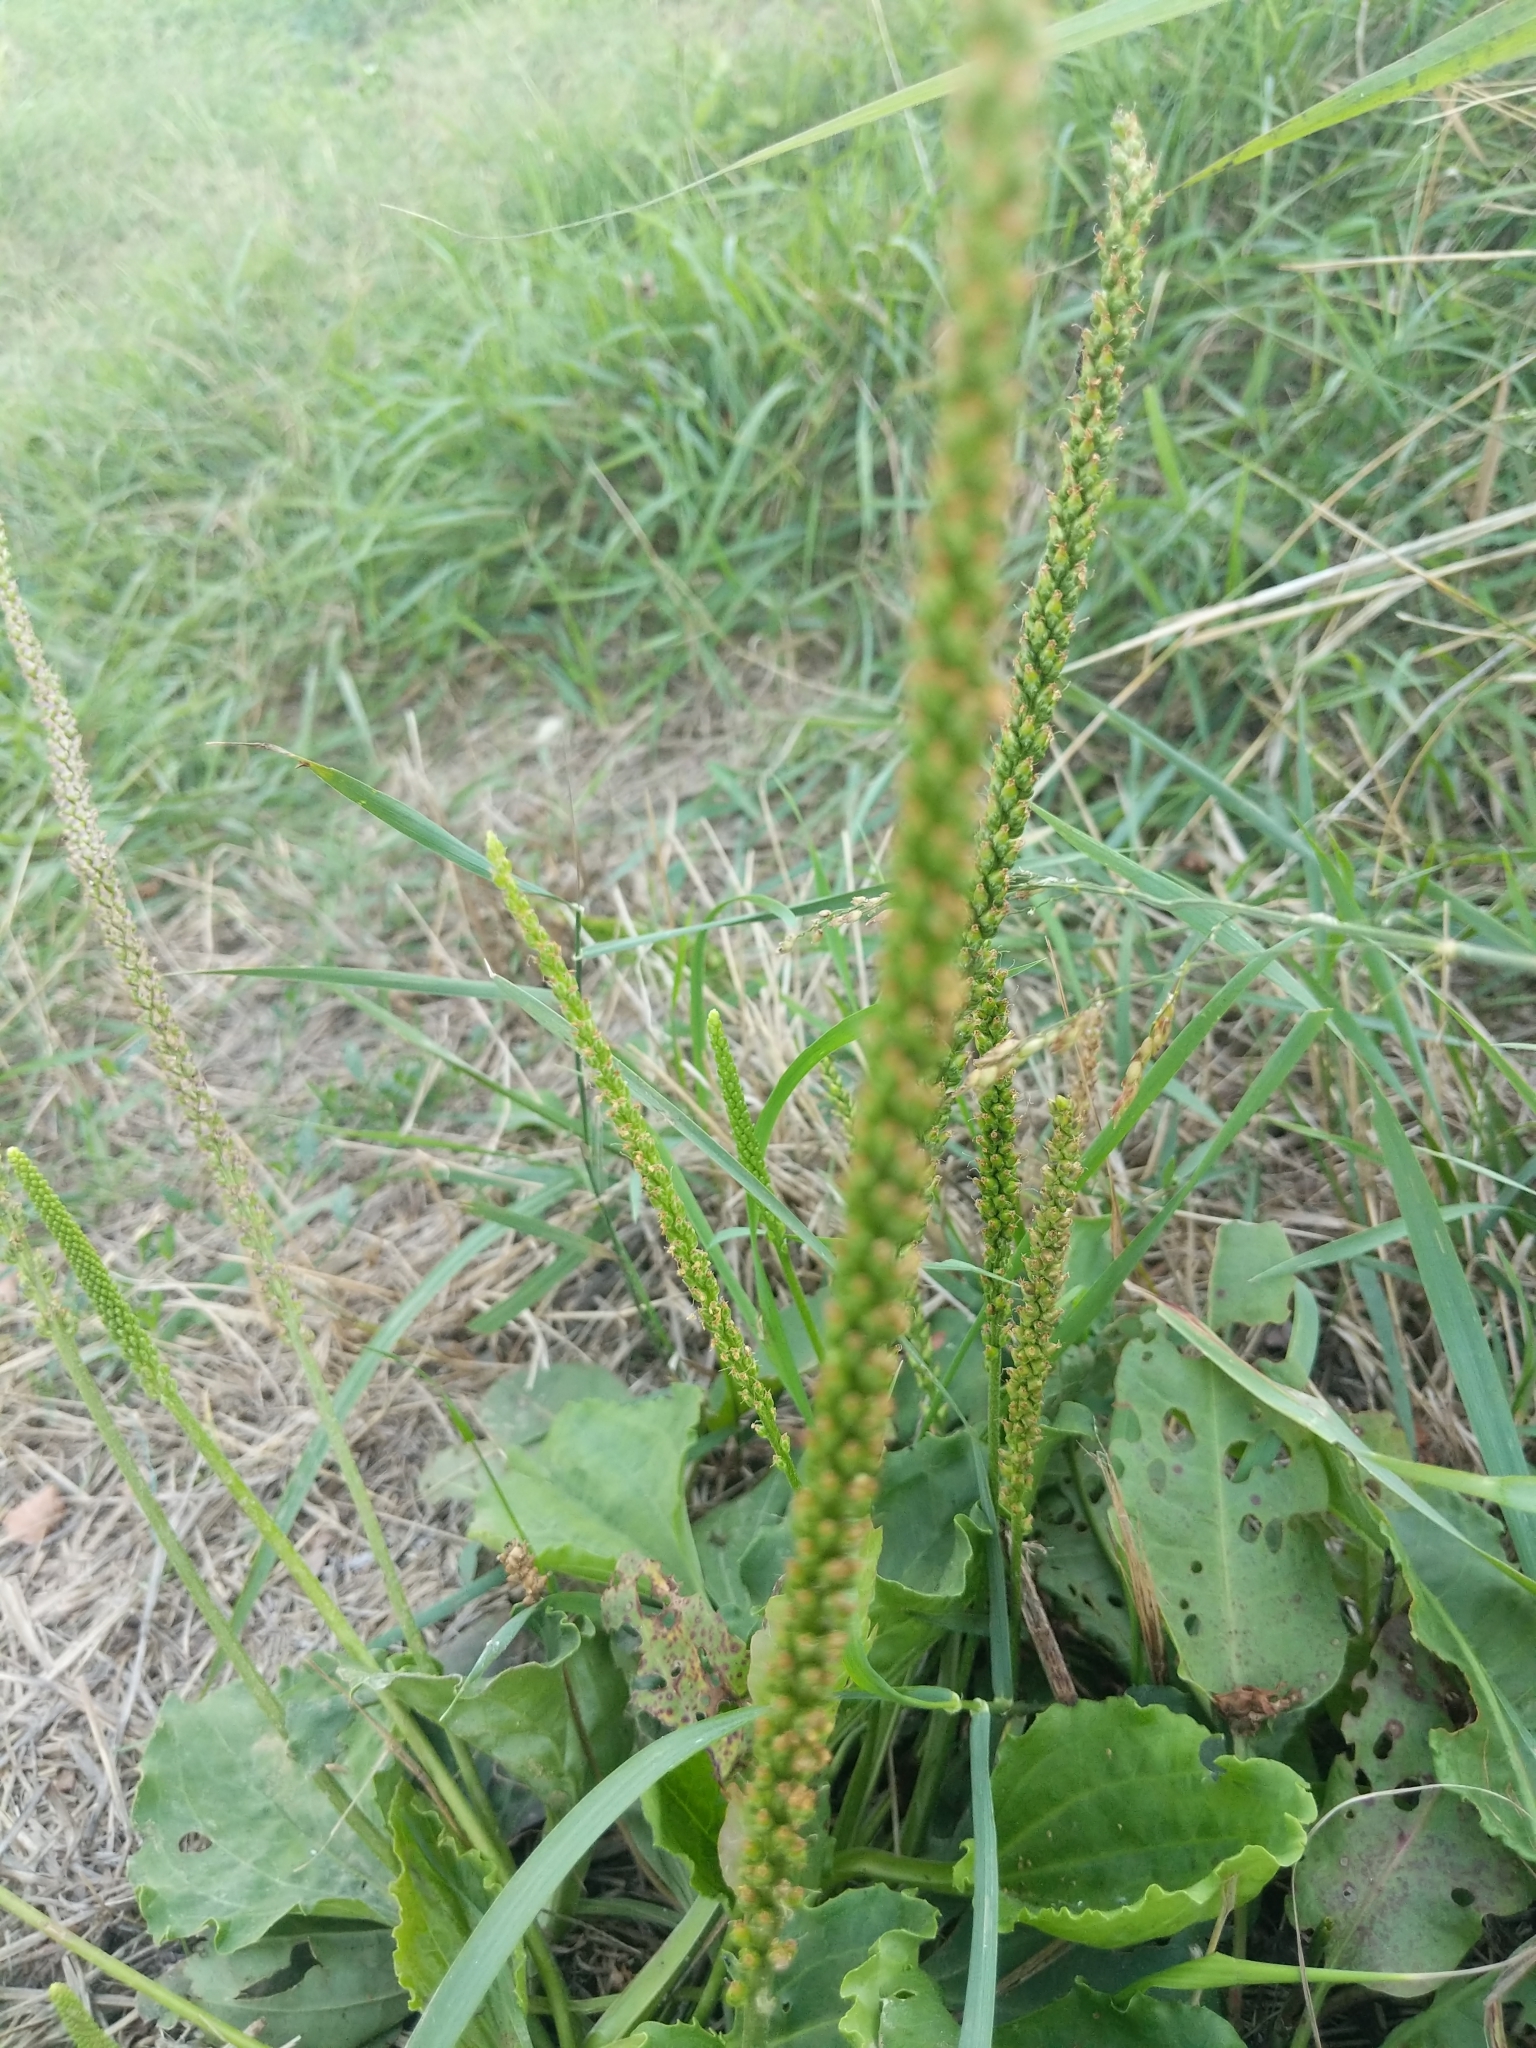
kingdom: Plantae
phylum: Tracheophyta
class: Magnoliopsida
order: Lamiales
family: Plantaginaceae
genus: Plantago
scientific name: Plantago major
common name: Common plantain
